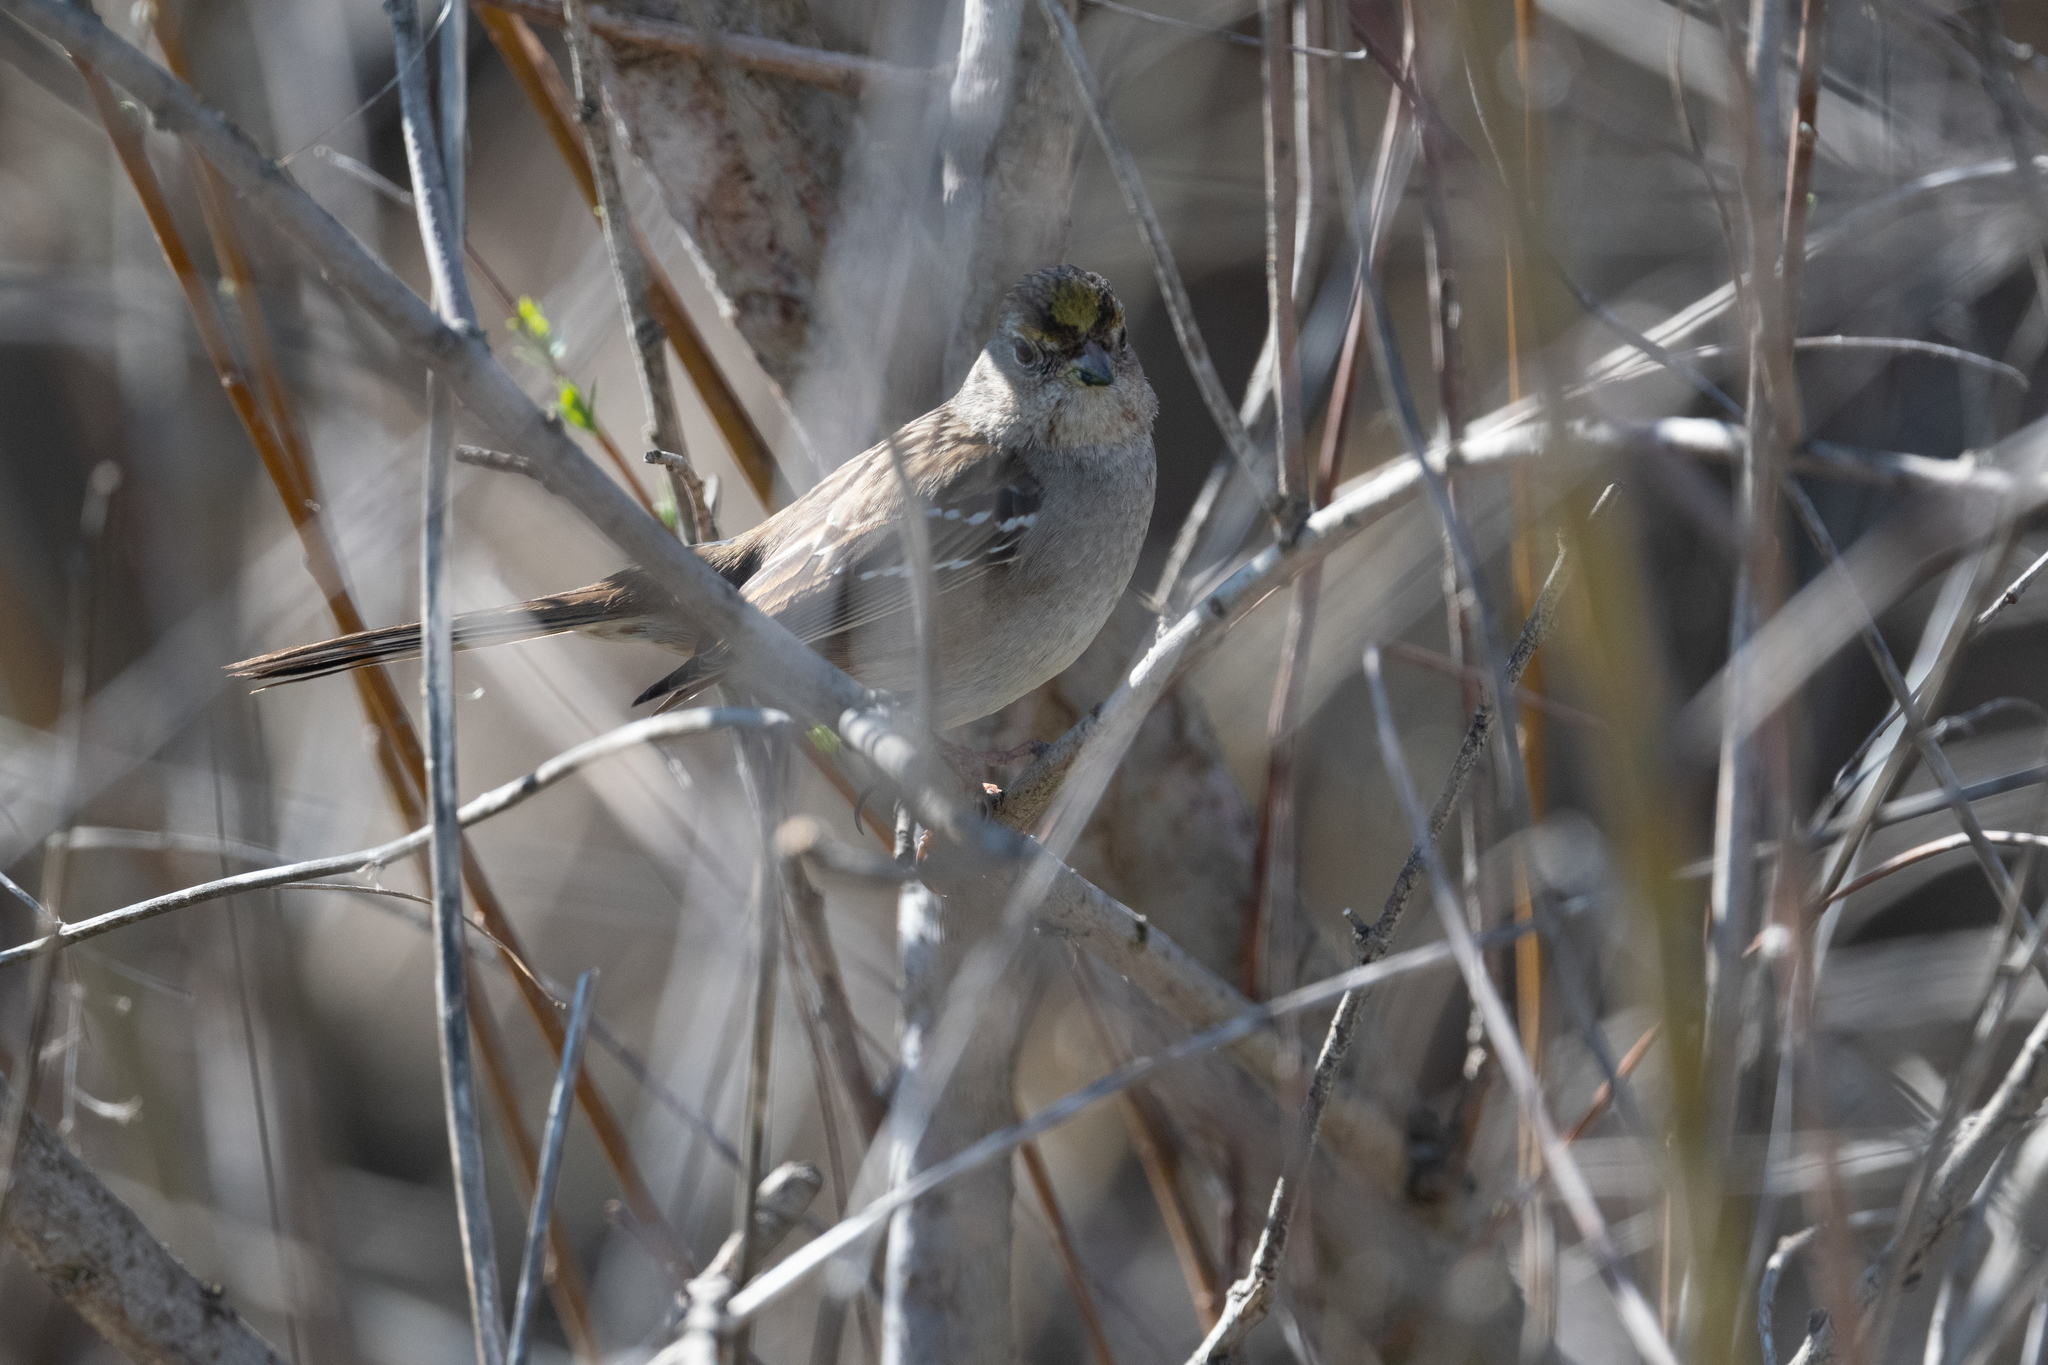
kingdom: Animalia
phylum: Chordata
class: Aves
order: Passeriformes
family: Passerellidae
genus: Zonotrichia
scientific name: Zonotrichia atricapilla
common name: Golden-crowned sparrow
